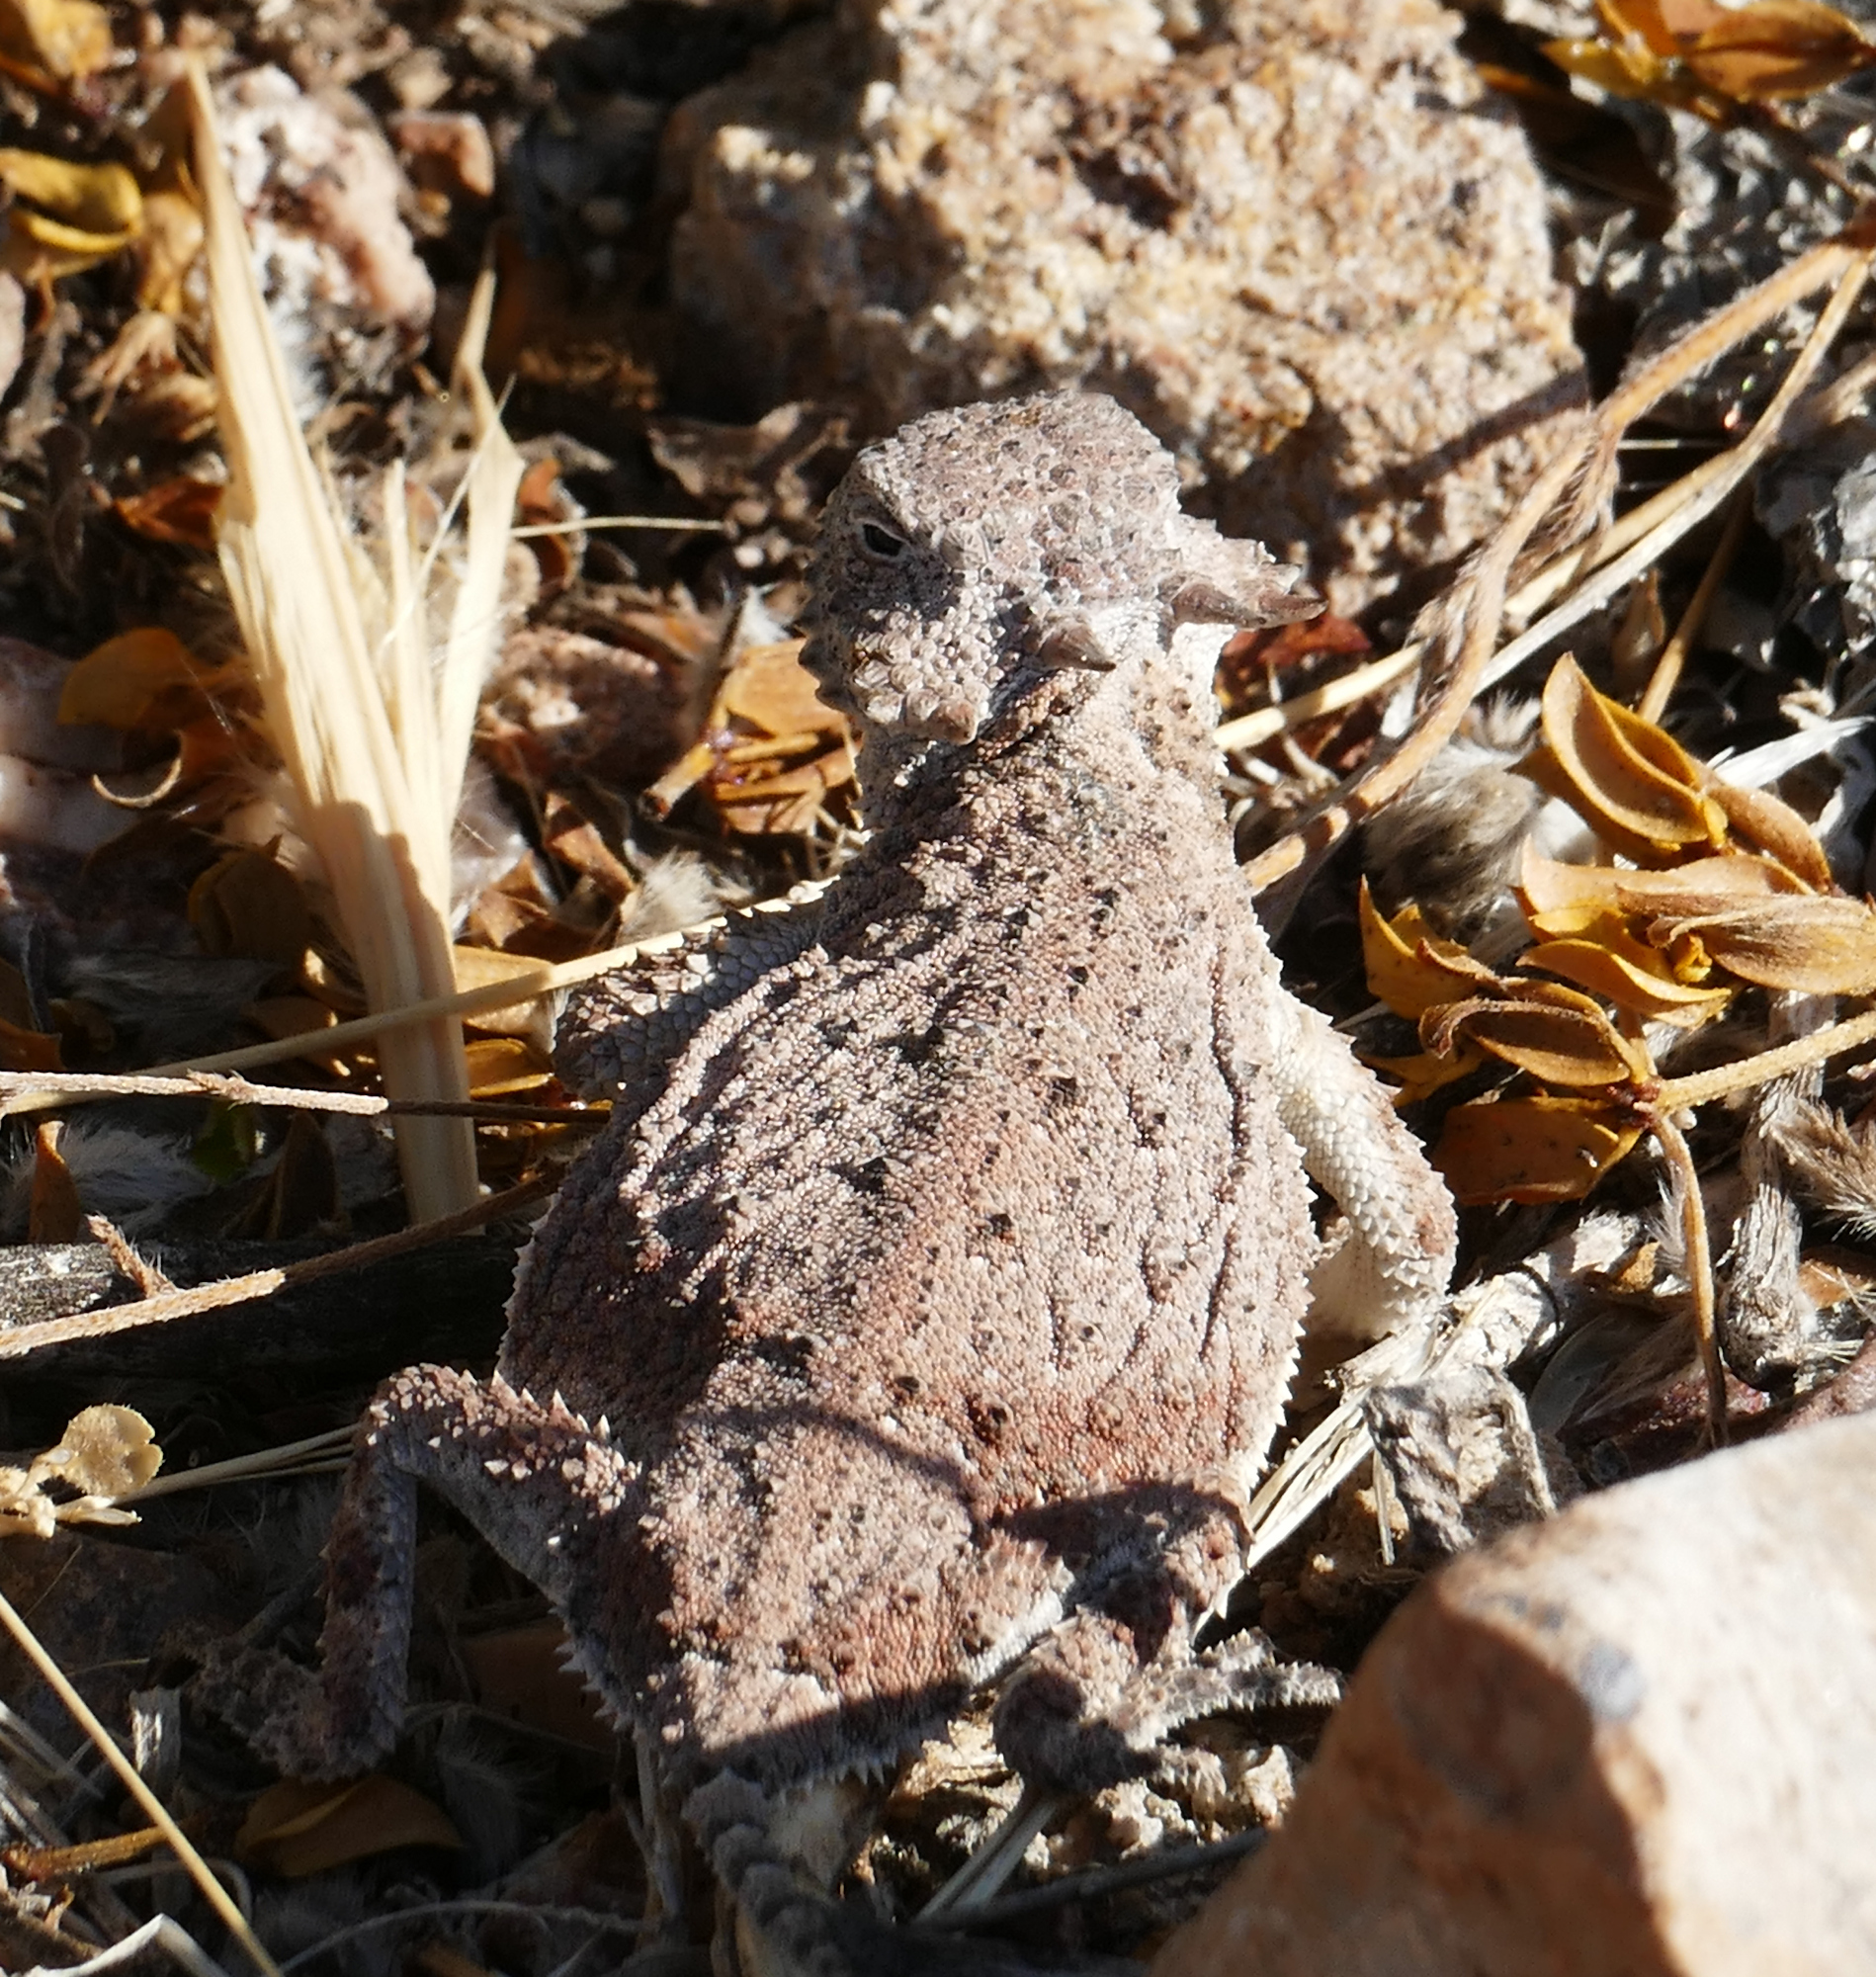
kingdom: Animalia
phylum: Chordata
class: Squamata
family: Phrynosomatidae
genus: Phrynosoma
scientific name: Phrynosoma modestum
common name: Roundtail horned lizard
